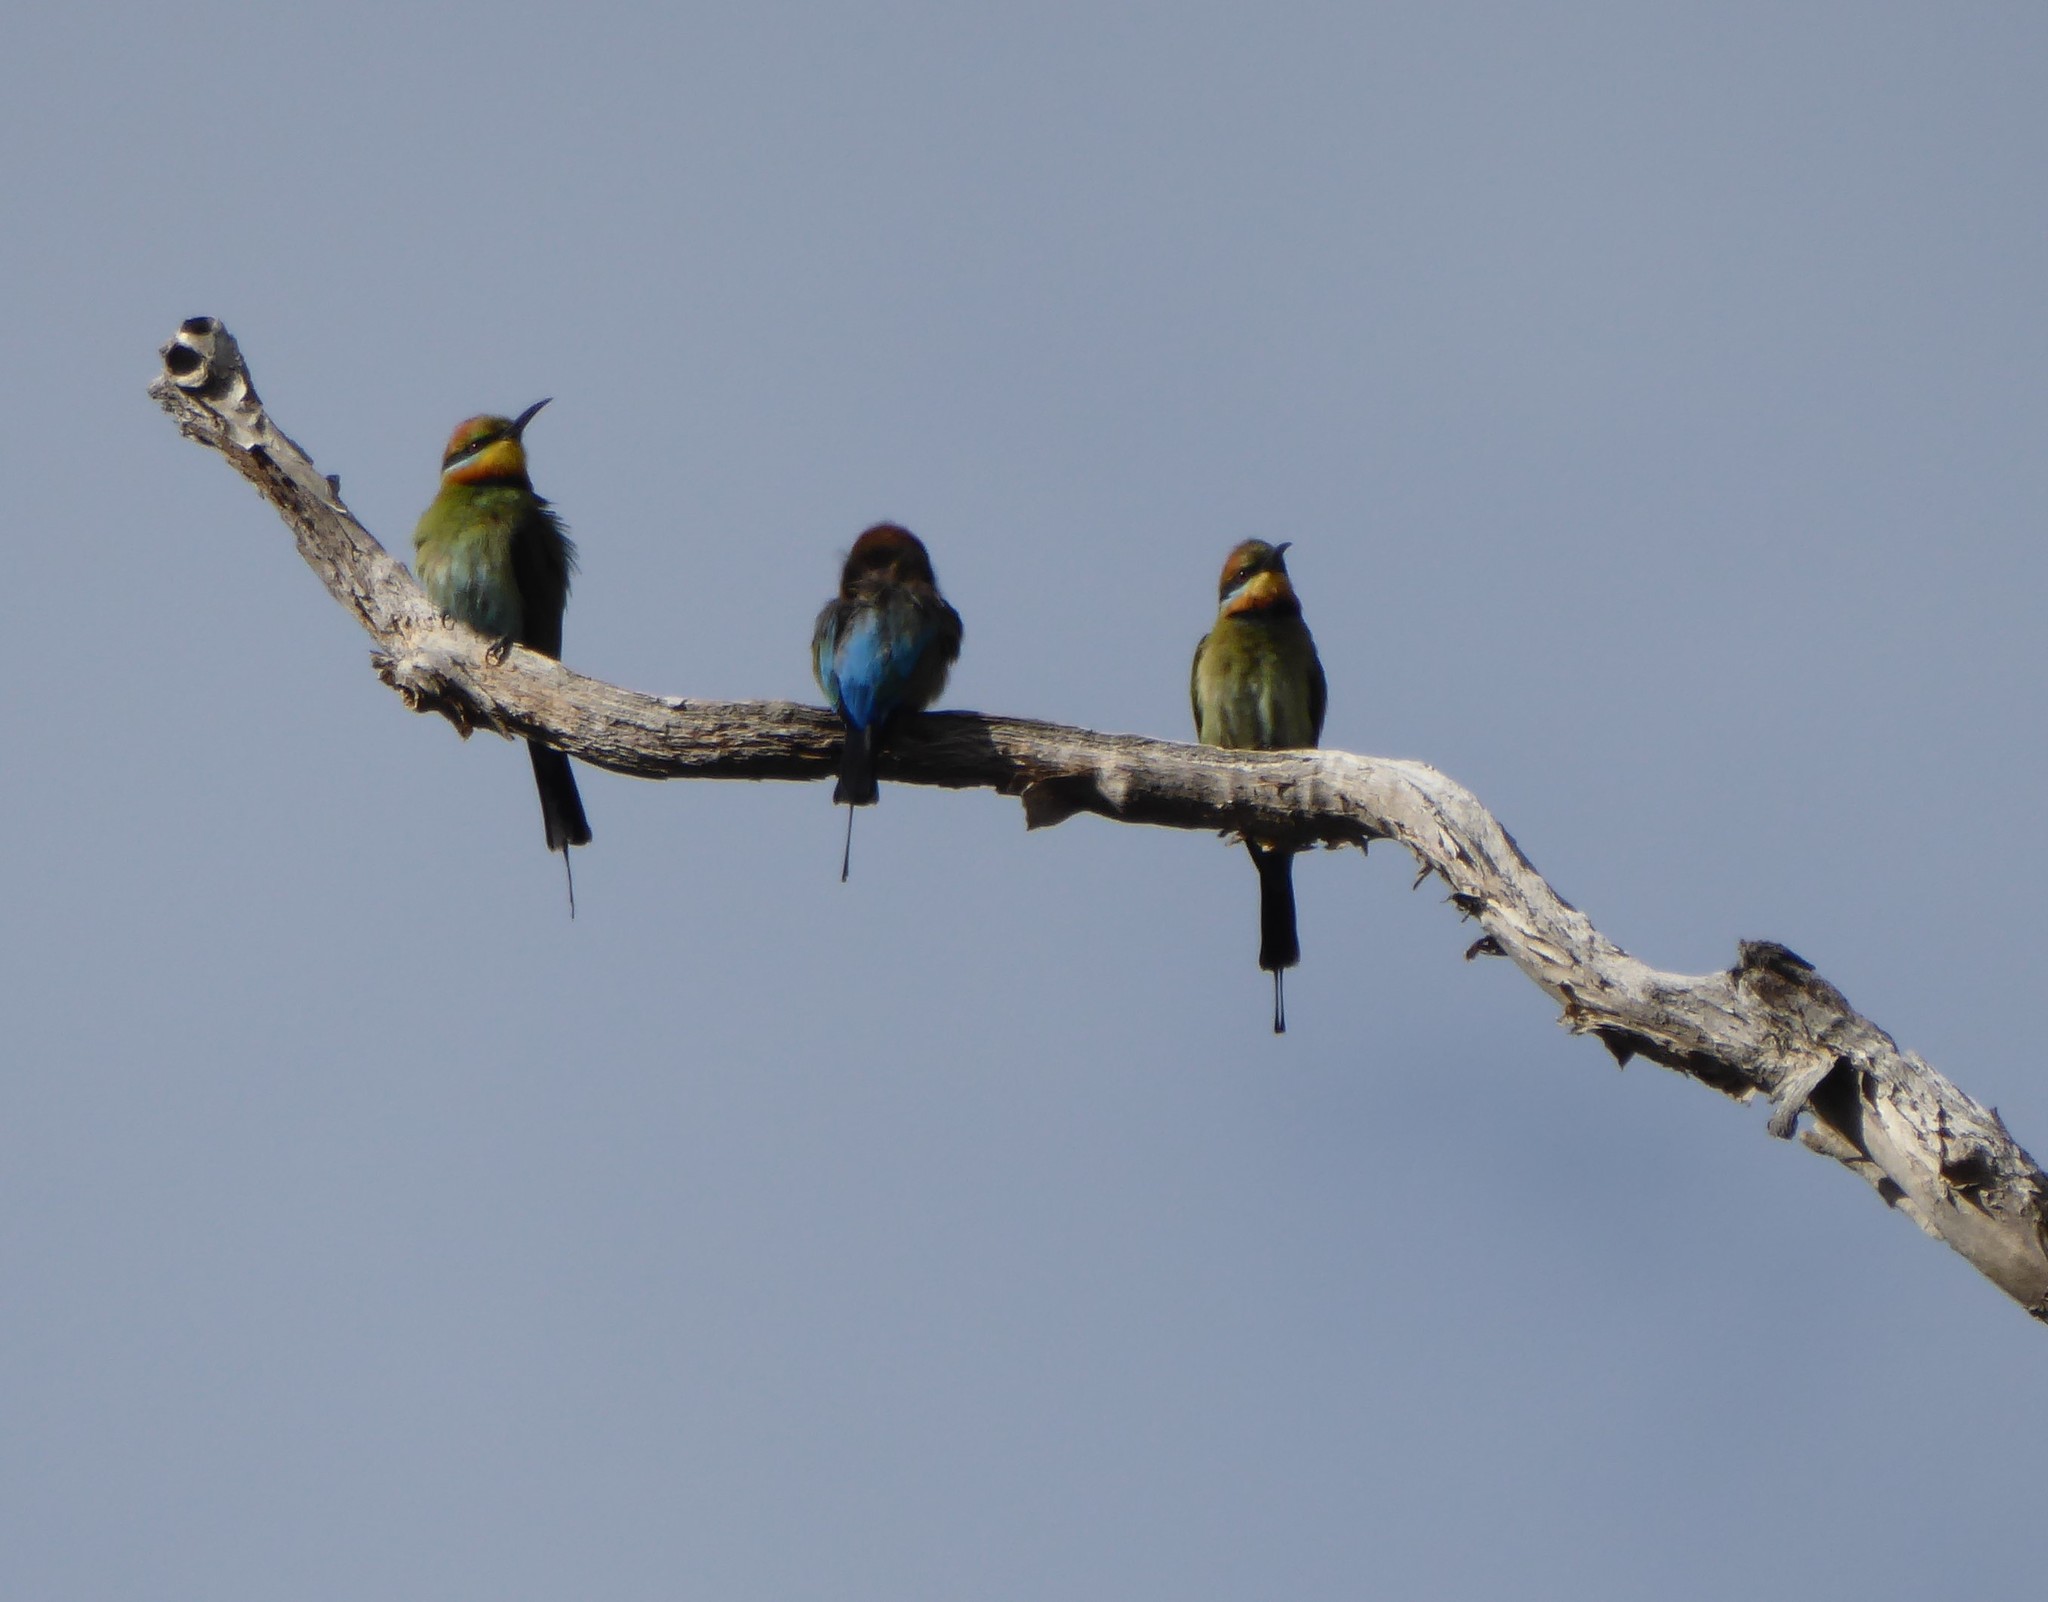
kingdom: Animalia
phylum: Chordata
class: Aves
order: Coraciiformes
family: Meropidae
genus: Merops
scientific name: Merops ornatus
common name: Rainbow bee-eater
